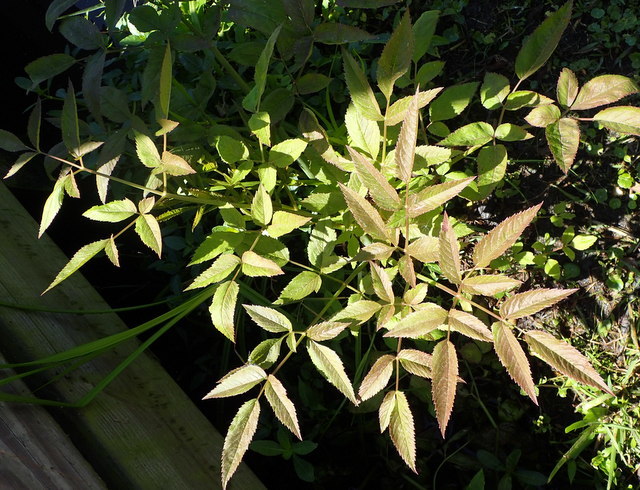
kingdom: Plantae
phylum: Tracheophyta
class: Magnoliopsida
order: Apiales
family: Apiaceae
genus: Cicuta
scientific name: Cicuta maculata
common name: Spotted cowbane
